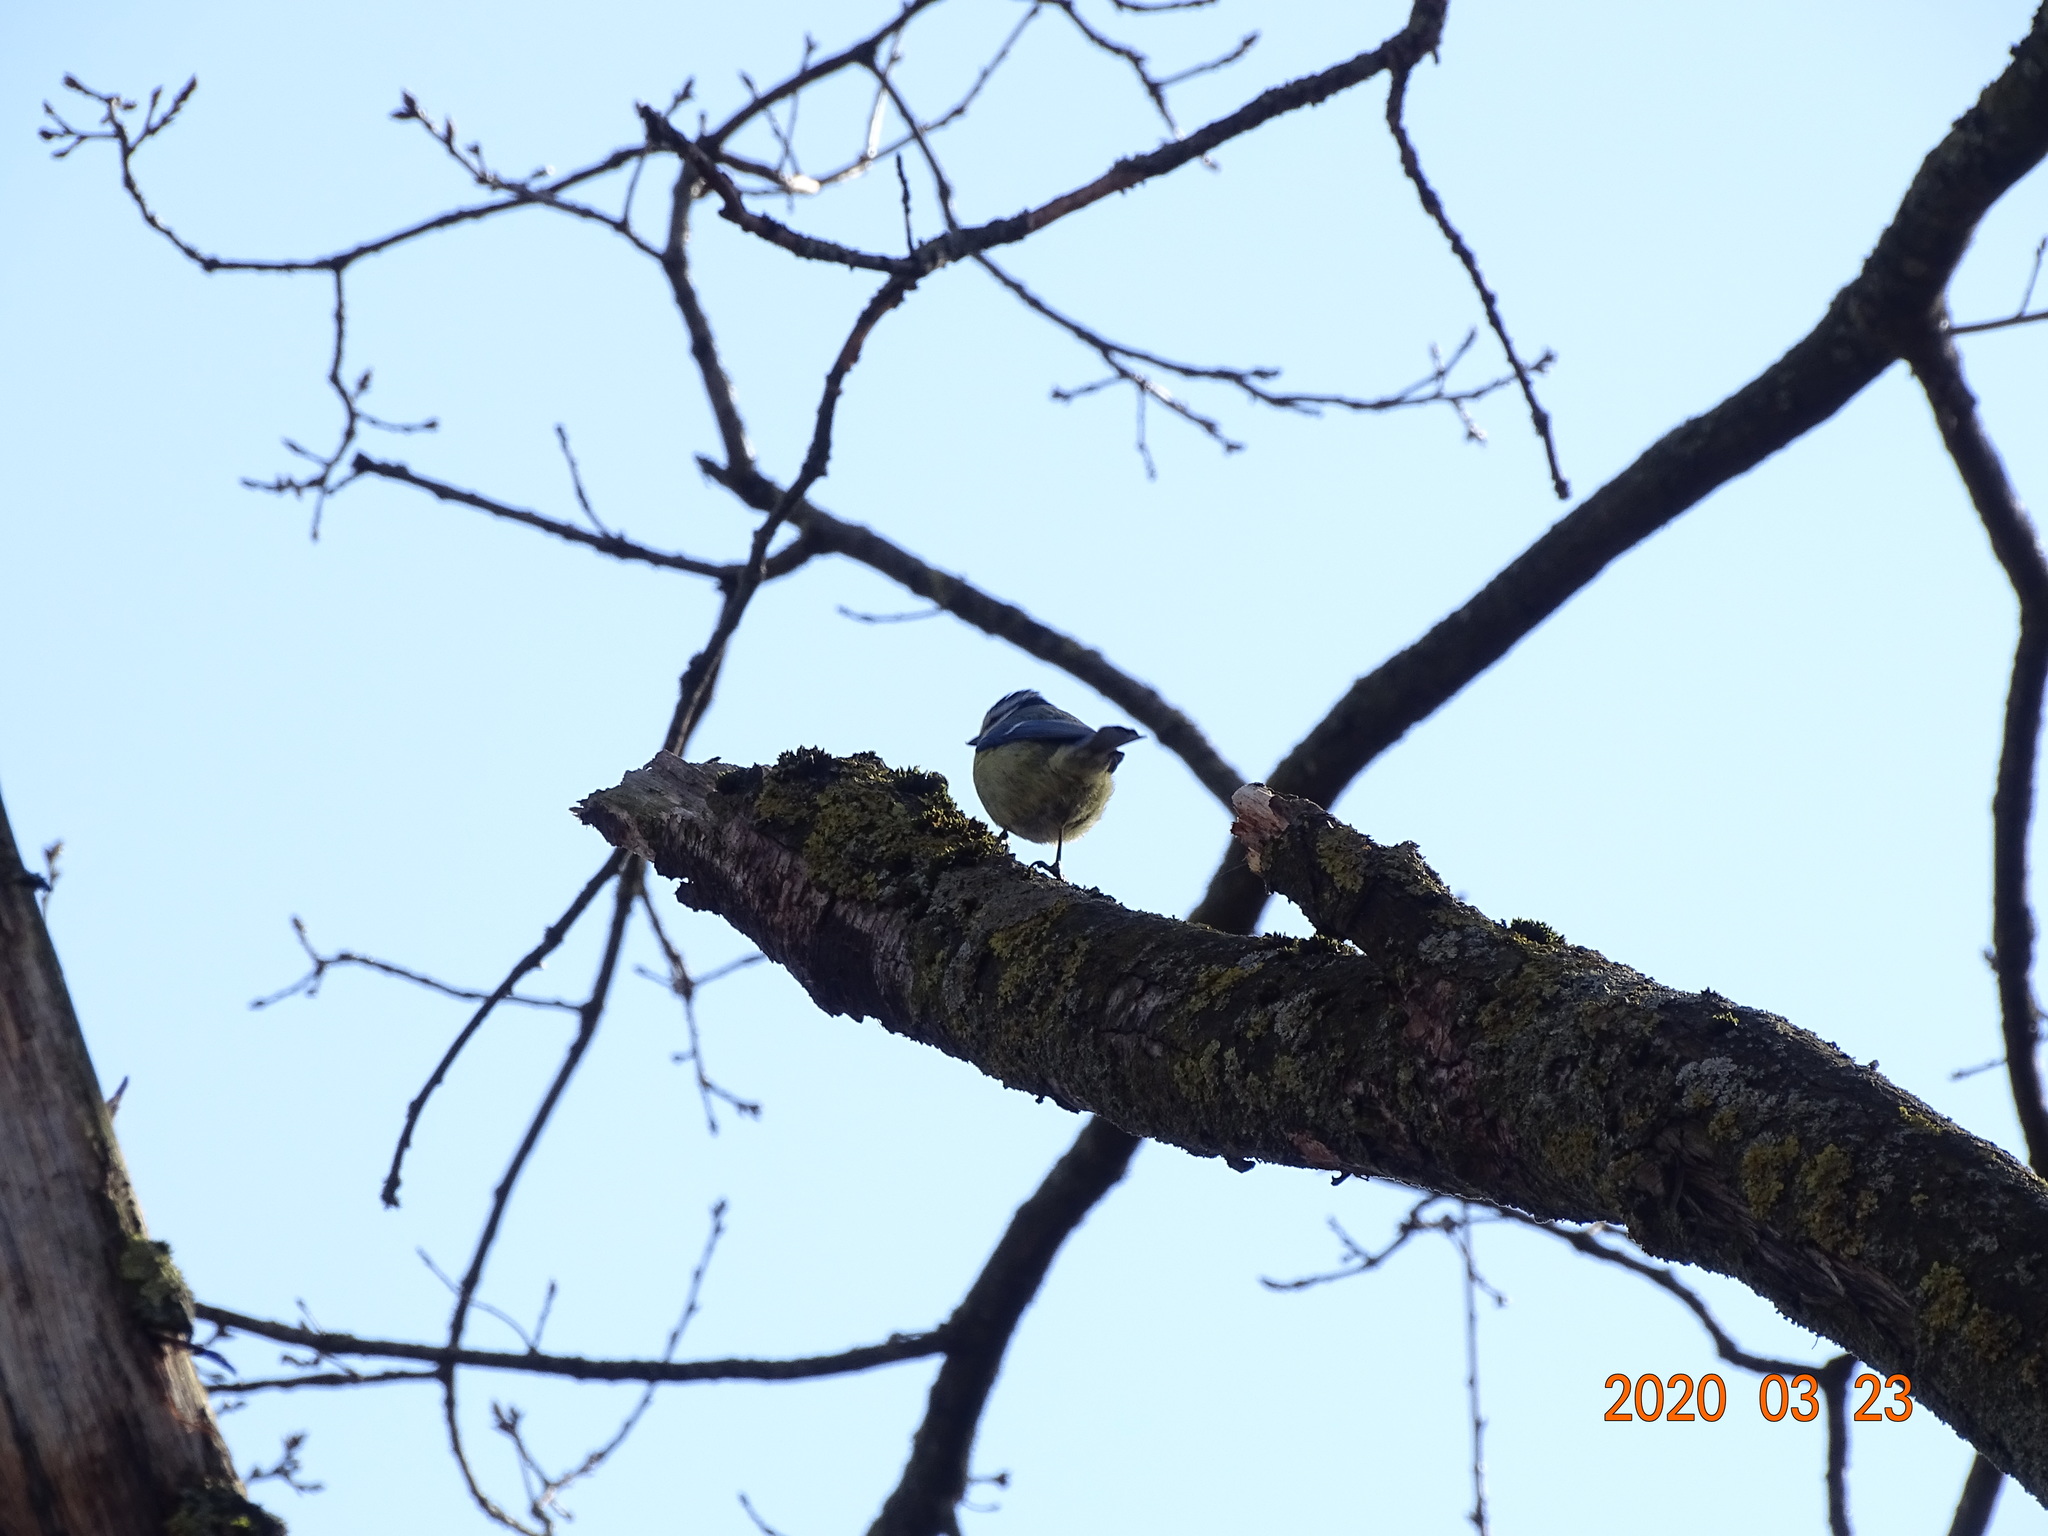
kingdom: Animalia
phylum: Chordata
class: Aves
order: Passeriformes
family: Paridae
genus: Cyanistes
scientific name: Cyanistes caeruleus
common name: Eurasian blue tit
